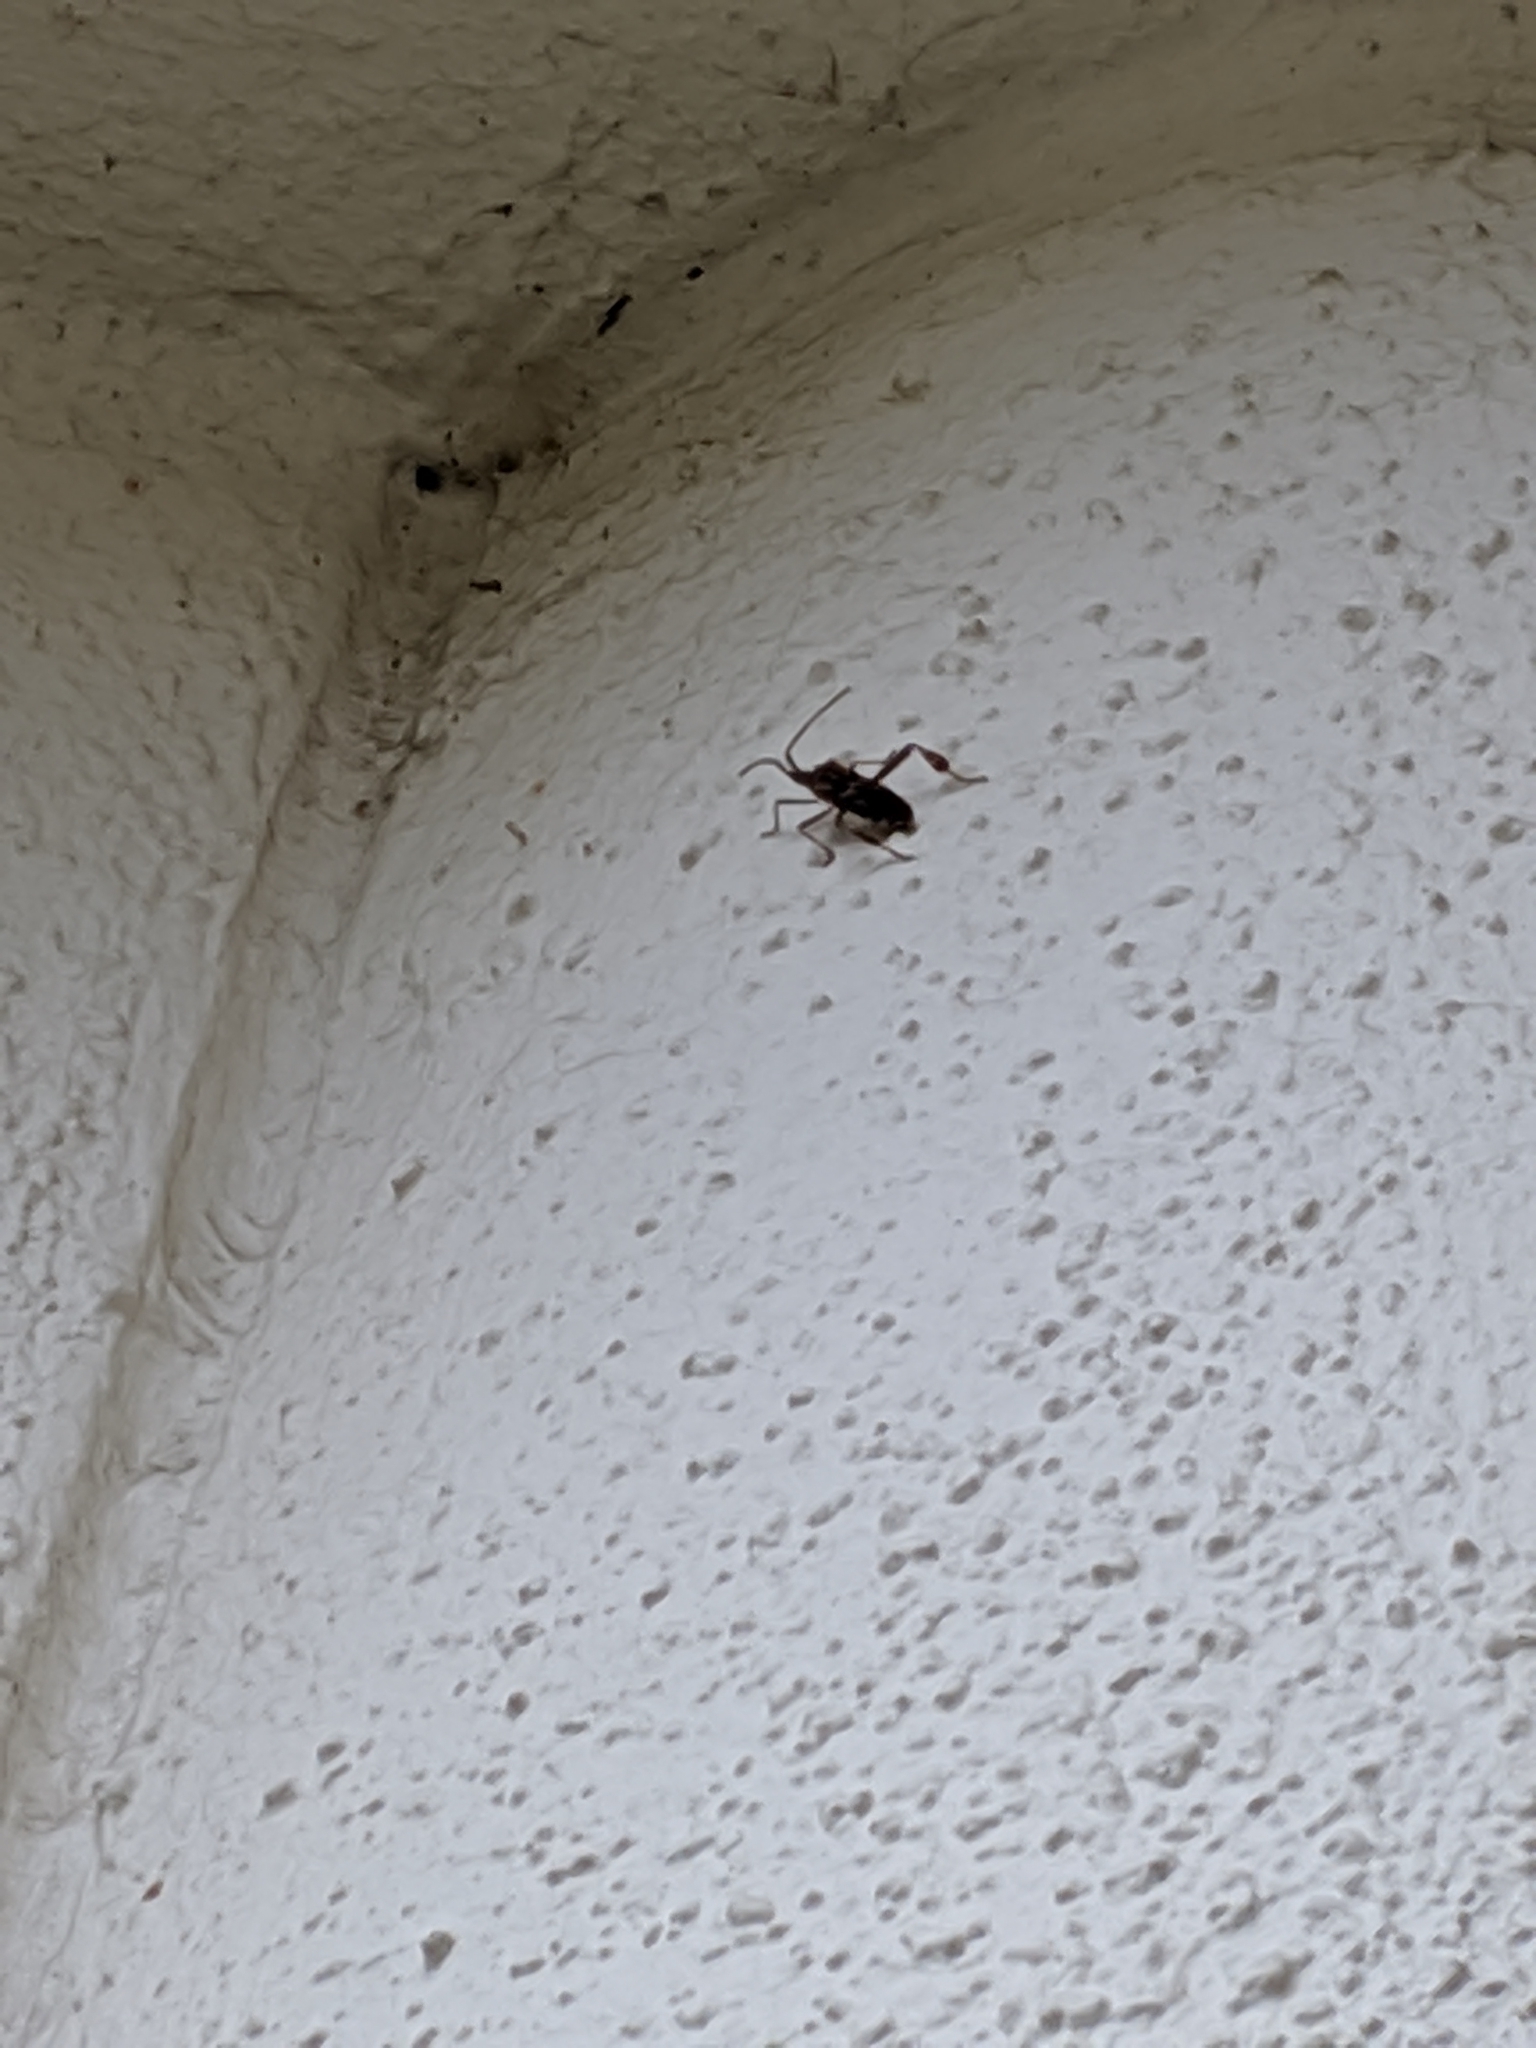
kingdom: Animalia
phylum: Arthropoda
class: Insecta
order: Hemiptera
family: Coreidae
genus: Leptoglossus
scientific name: Leptoglossus occidentalis
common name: Western conifer-seed bug
